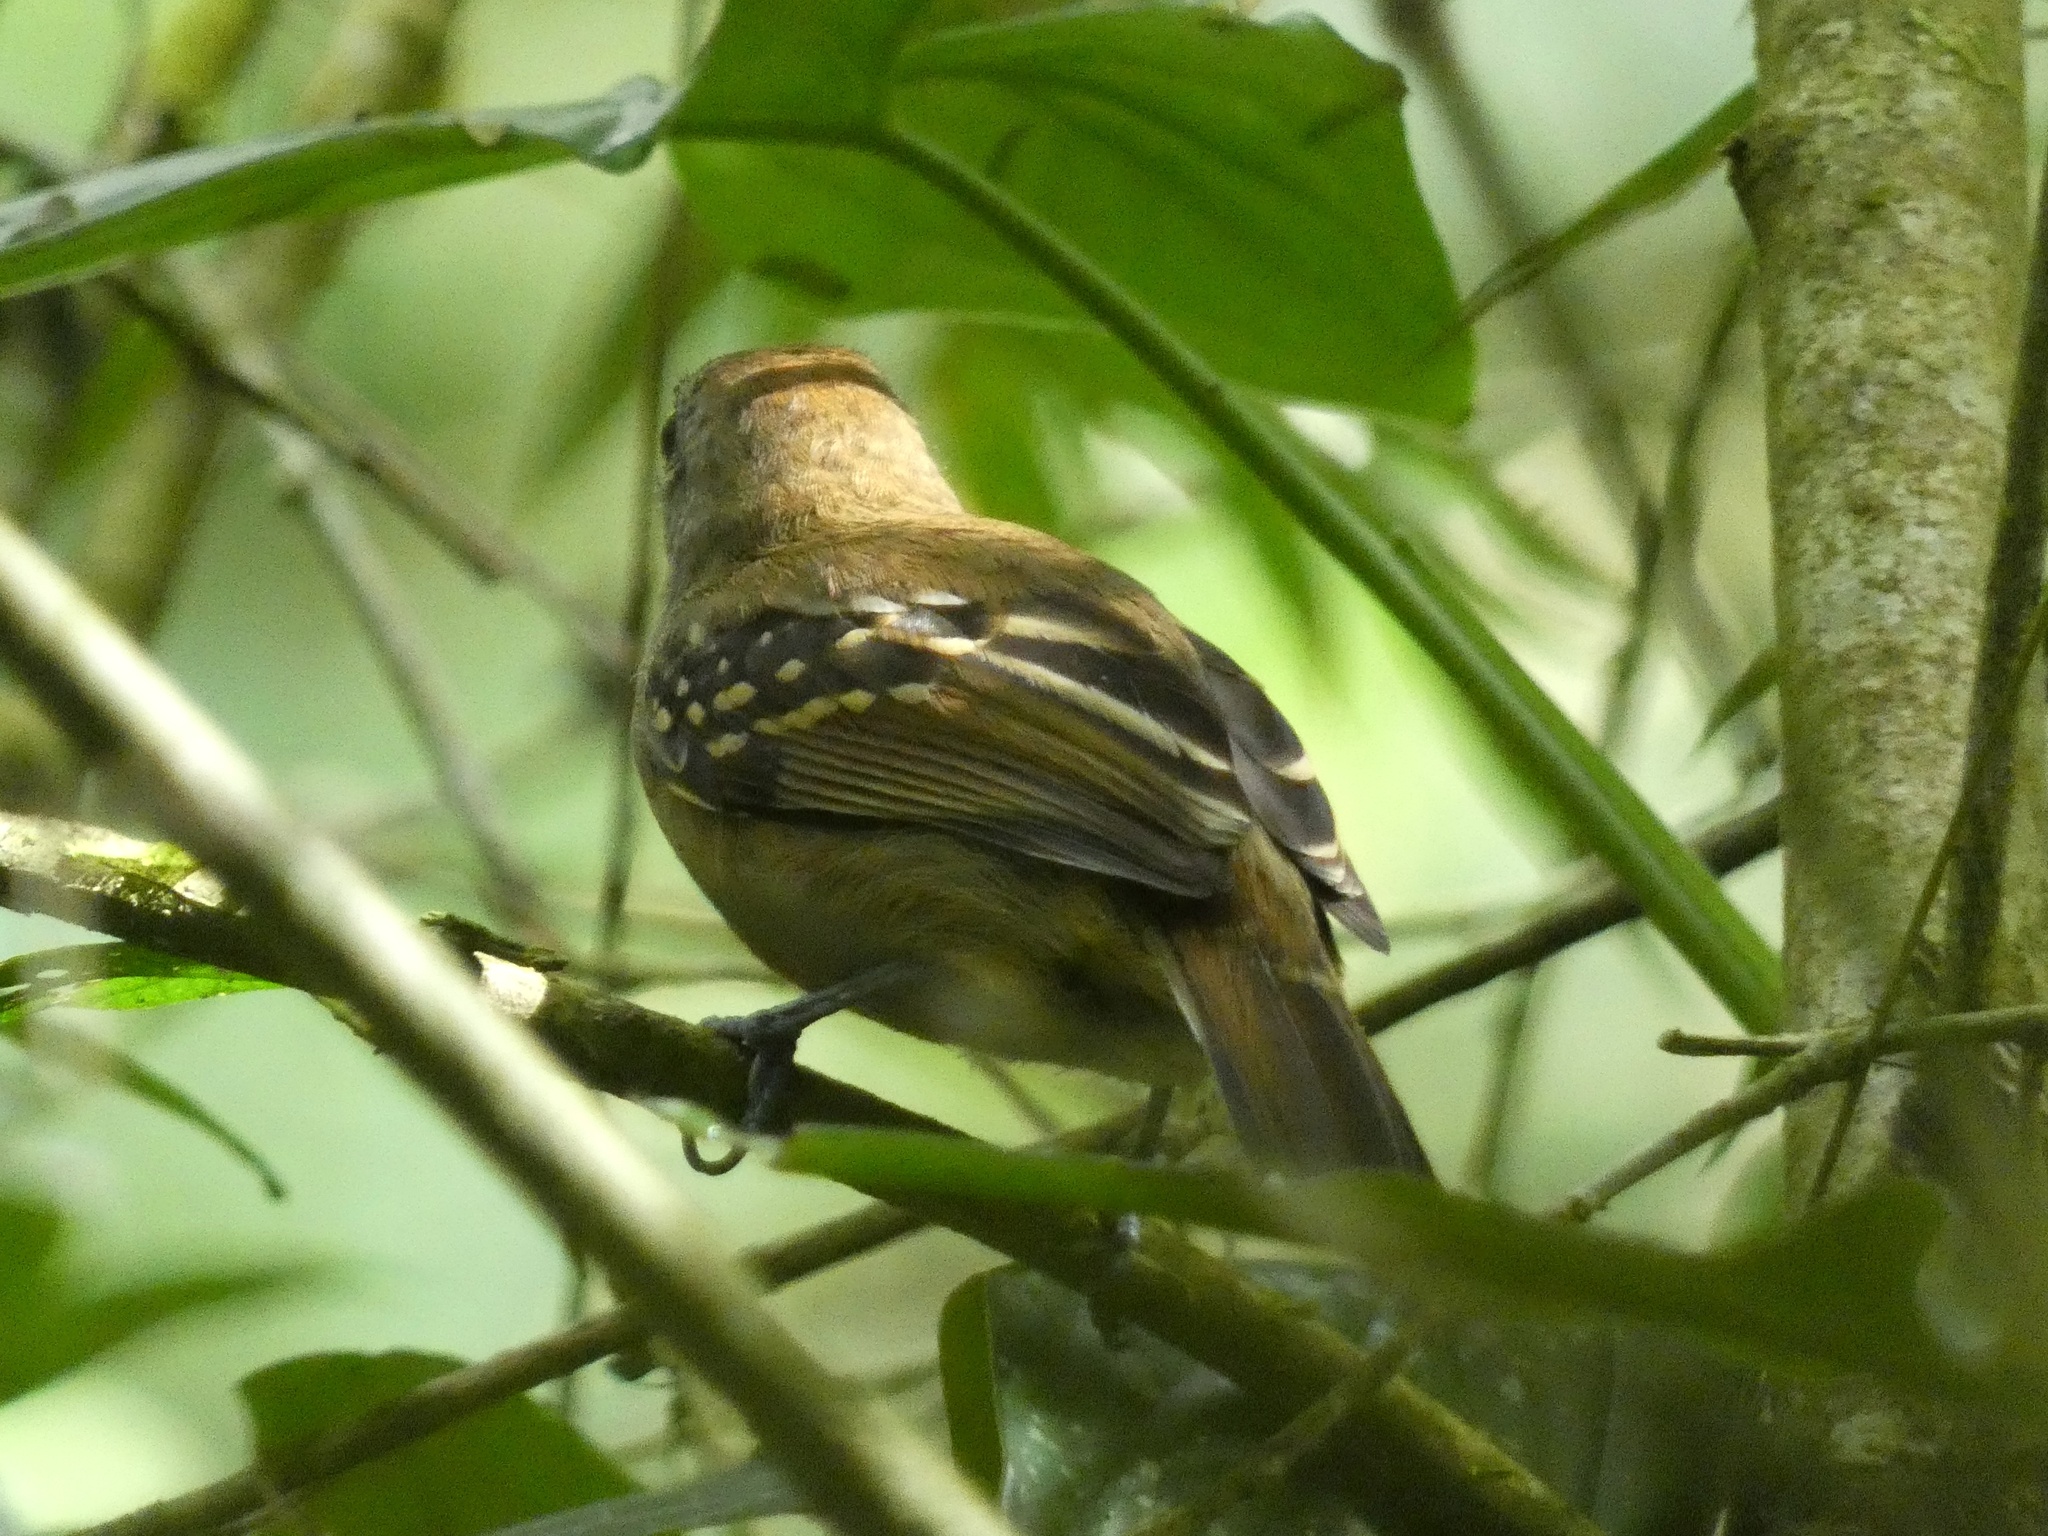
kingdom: Animalia
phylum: Chordata
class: Aves
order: Passeriformes
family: Thamnophilidae
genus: Thamnophilus
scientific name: Thamnophilus atrinucha
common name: Black-crowned antshrike
